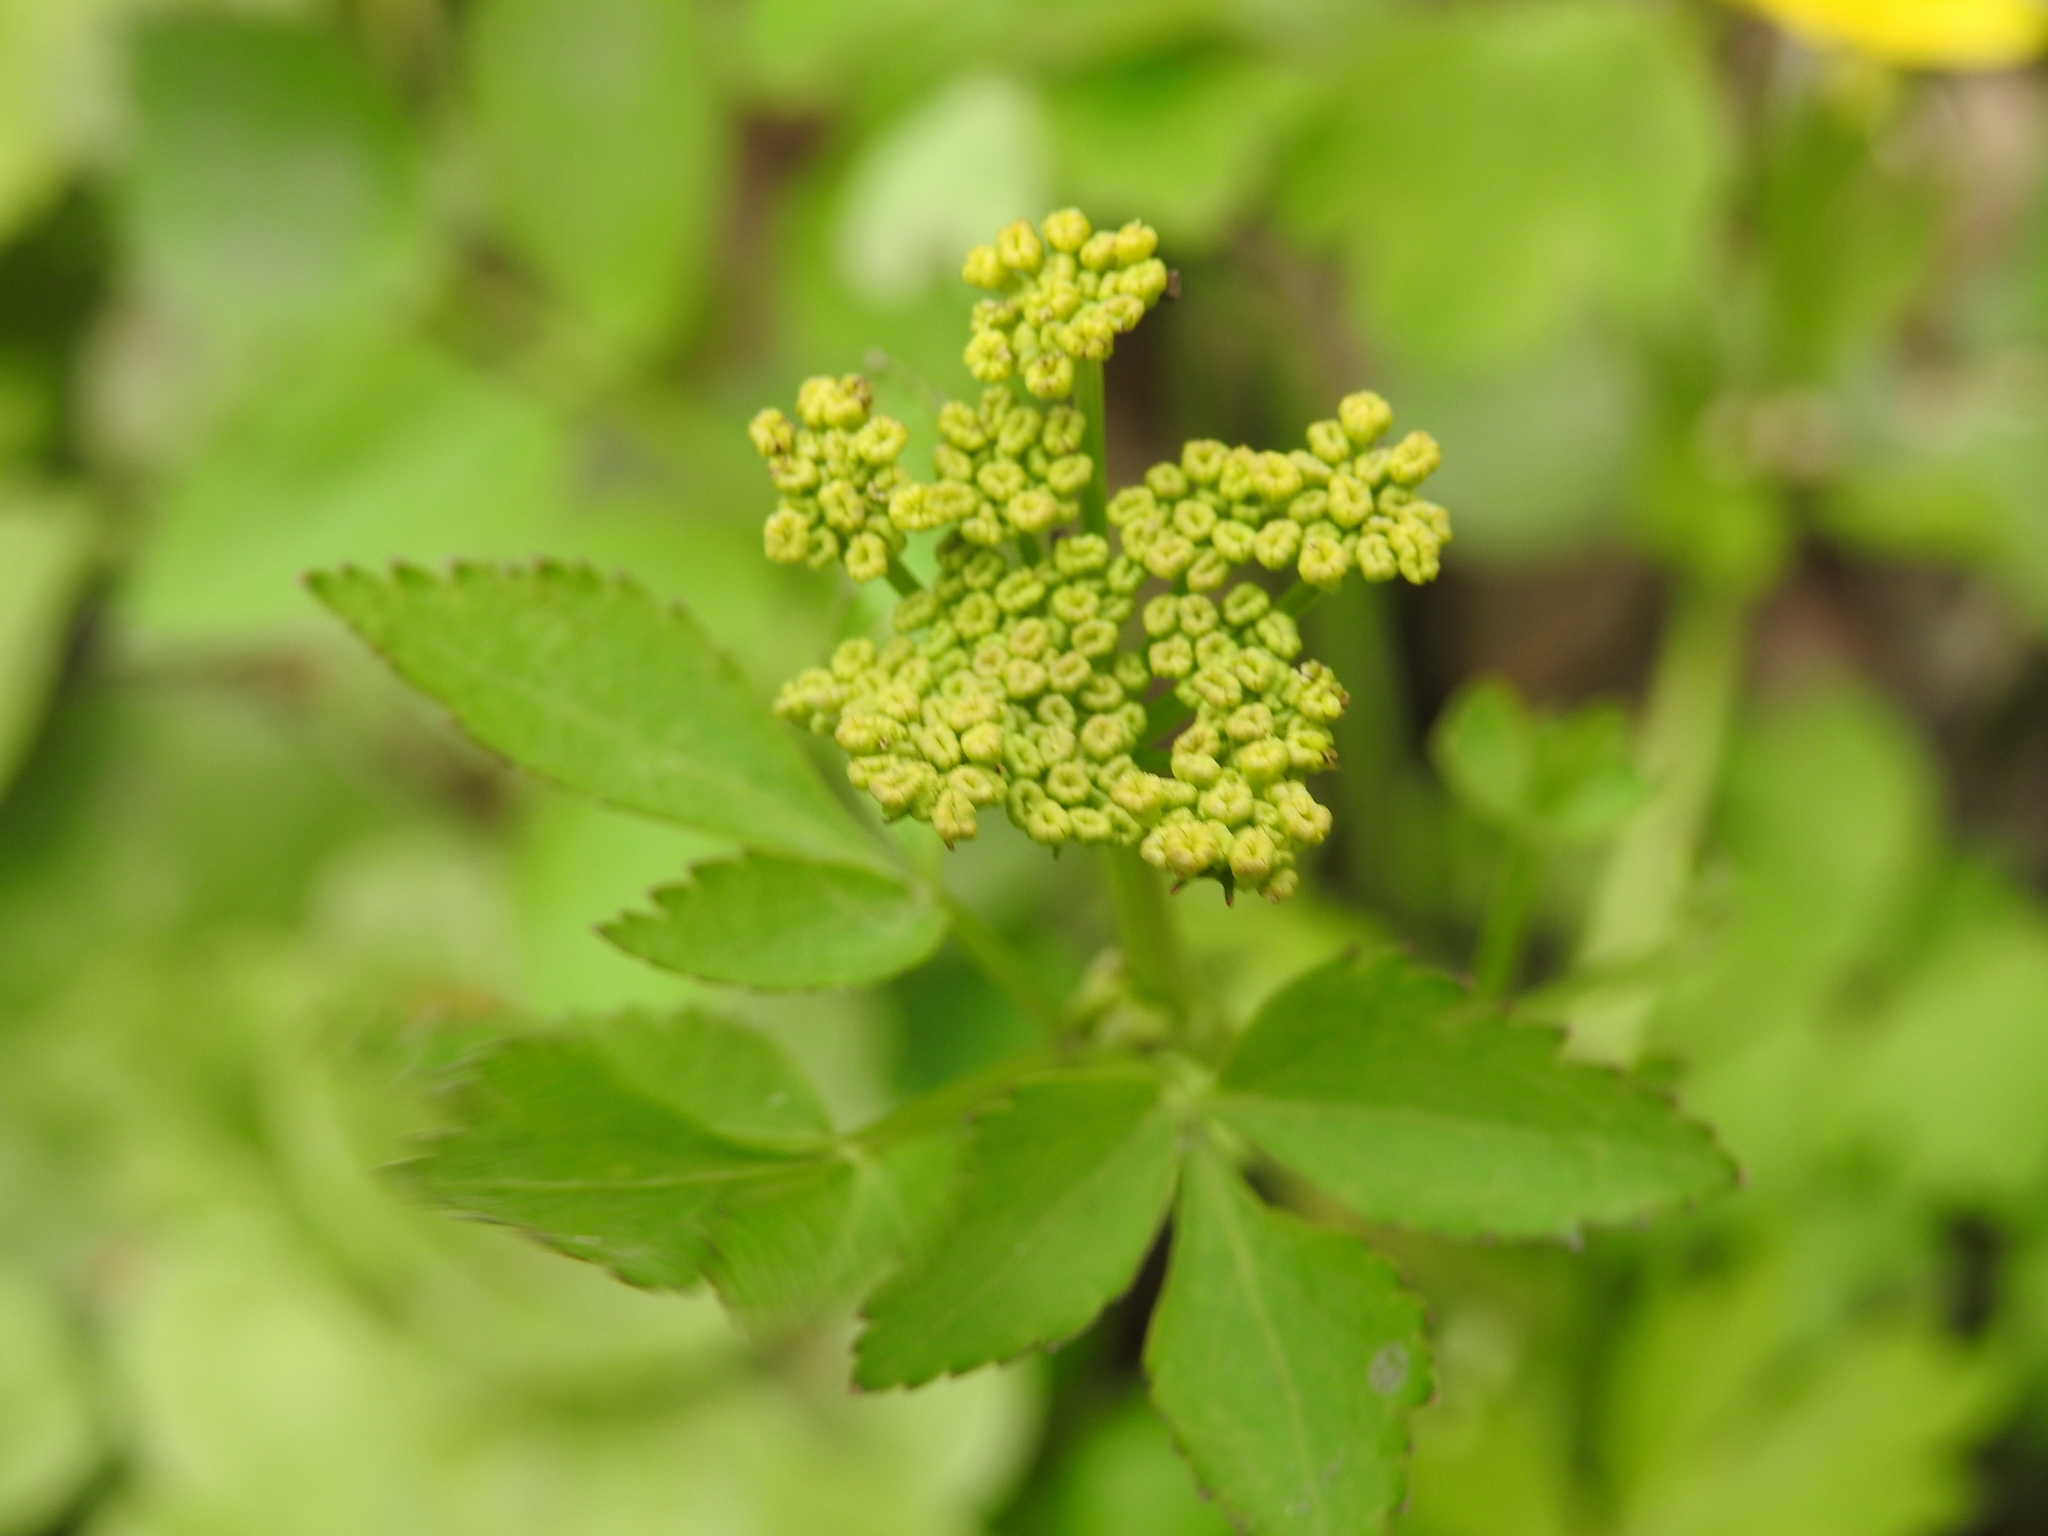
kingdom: Plantae
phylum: Tracheophyta
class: Magnoliopsida
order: Apiales
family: Apiaceae
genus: Zizia
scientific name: Zizia aurea
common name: Golden alexanders
